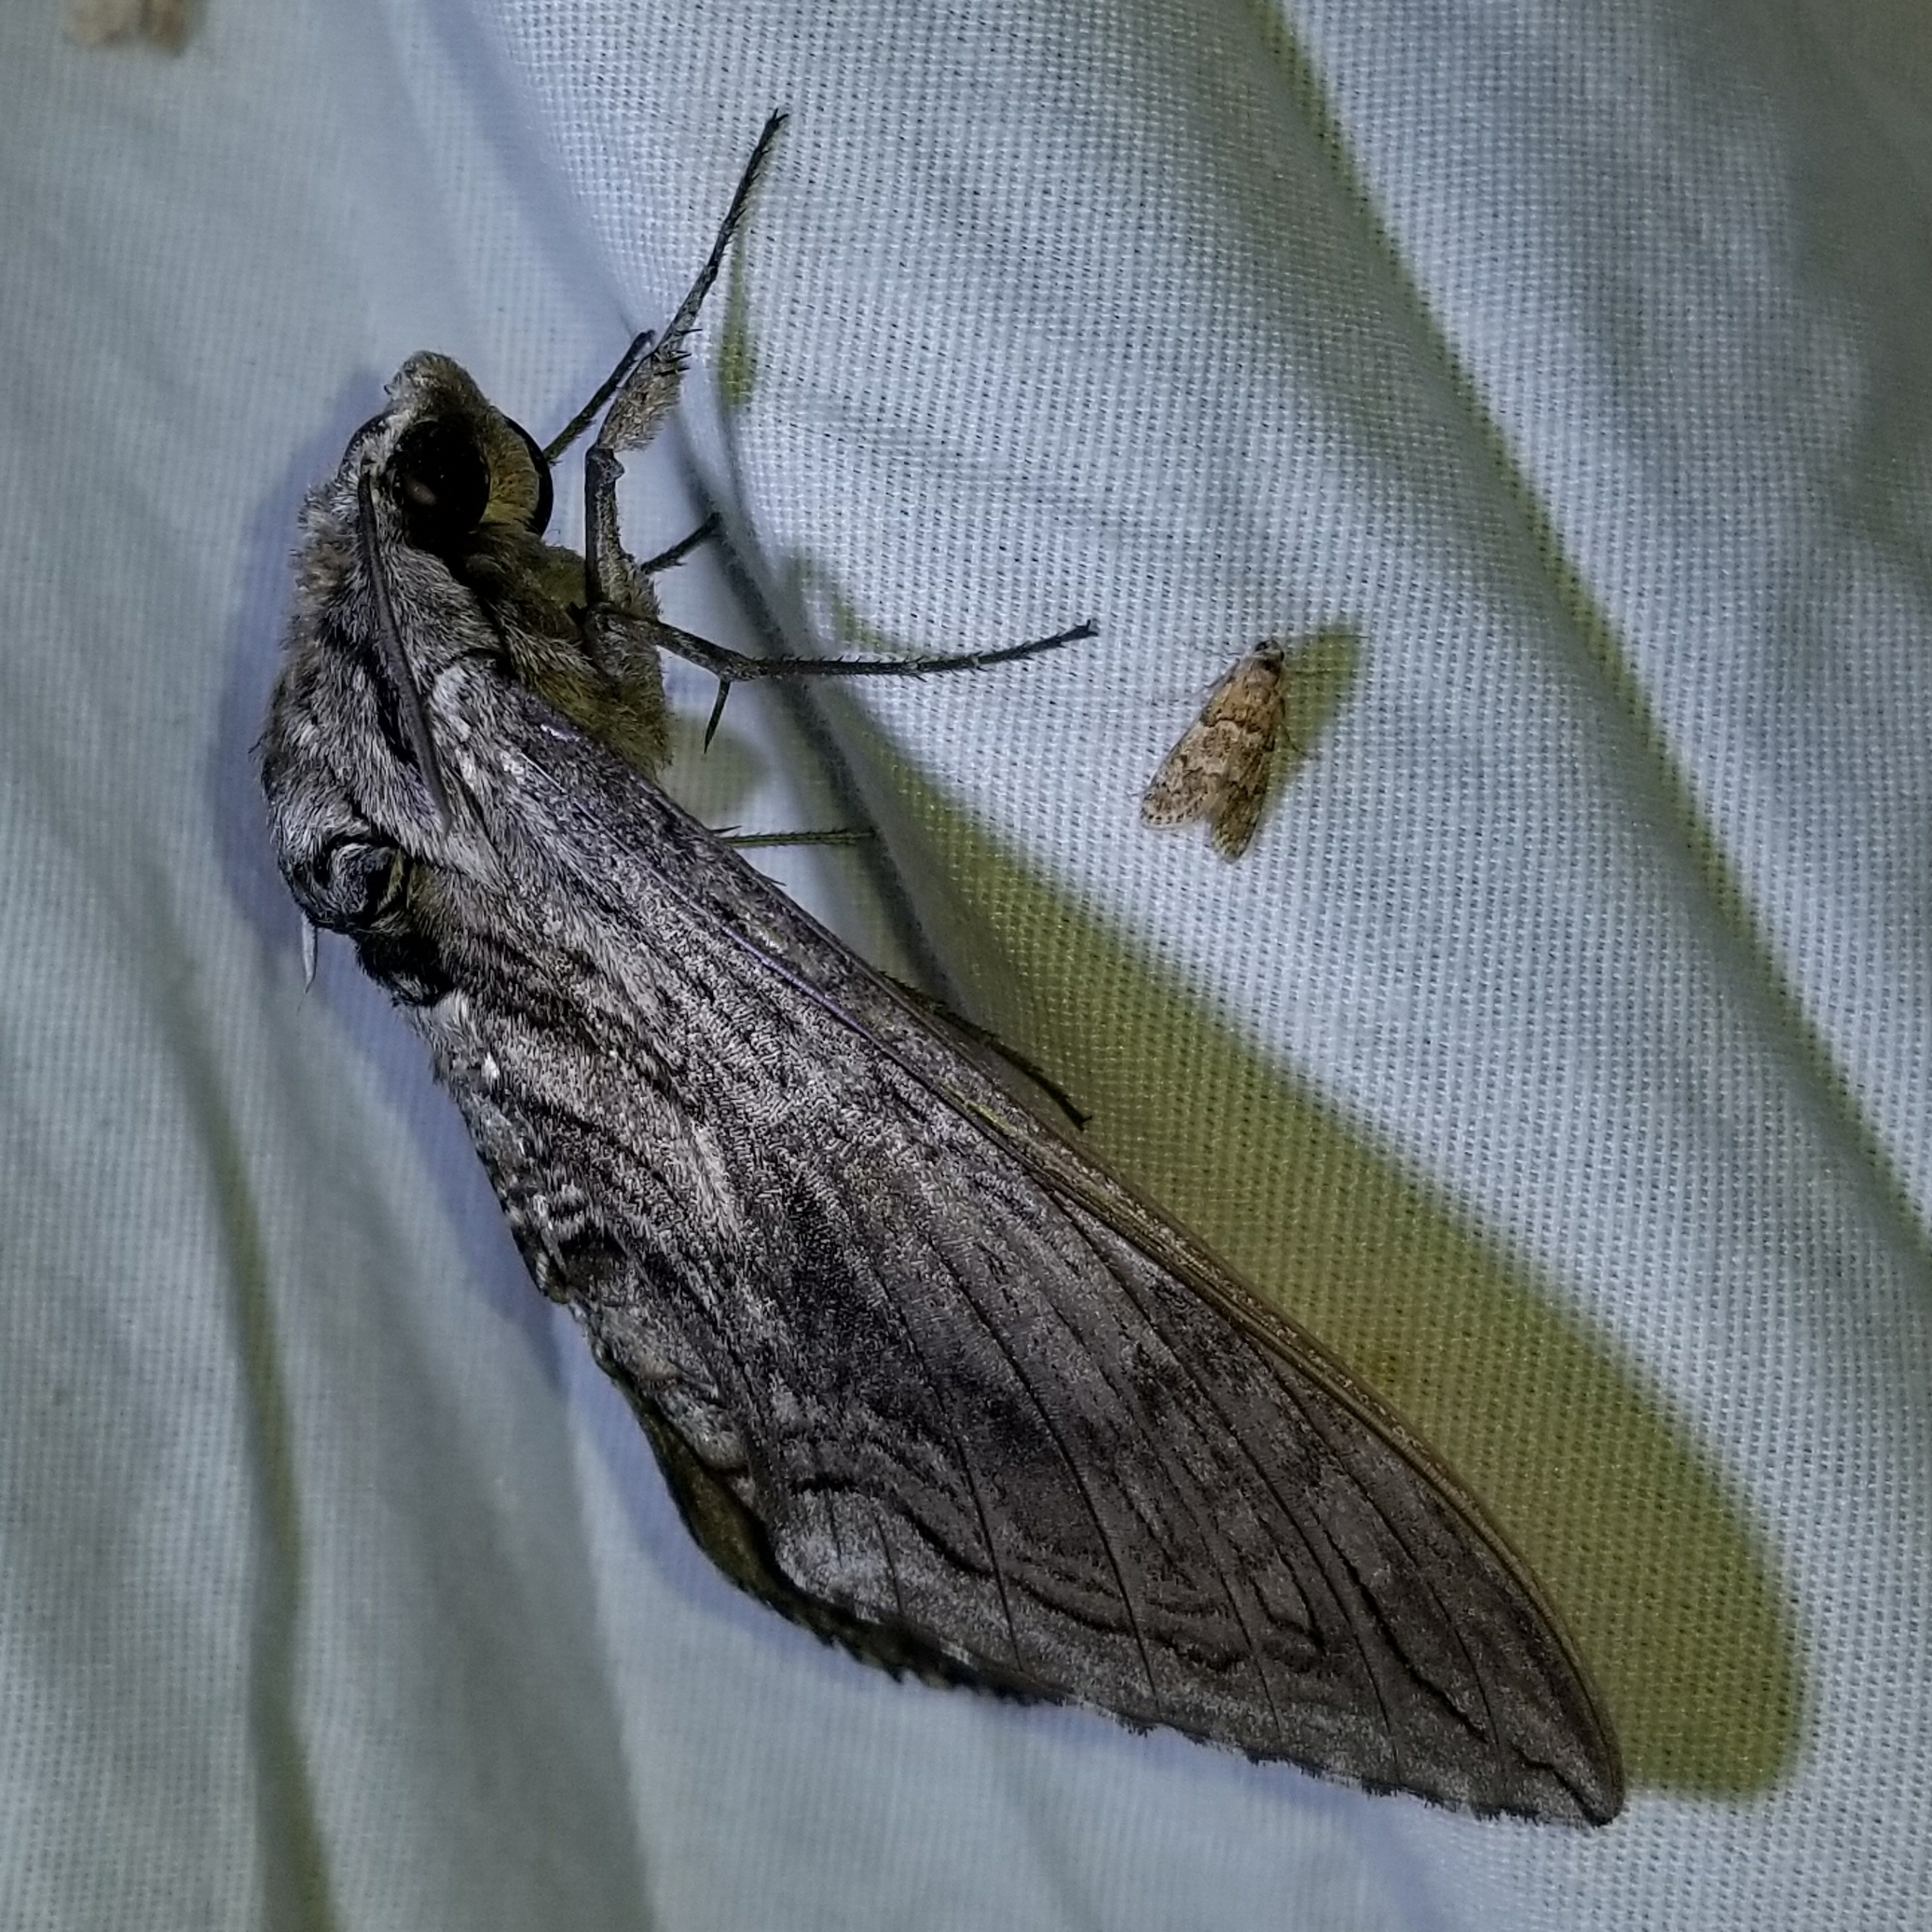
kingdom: Animalia
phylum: Arthropoda
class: Insecta
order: Lepidoptera
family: Sphingidae
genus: Manduca
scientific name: Manduca quinquemaculatus
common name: Five-spotted hawk-moth
